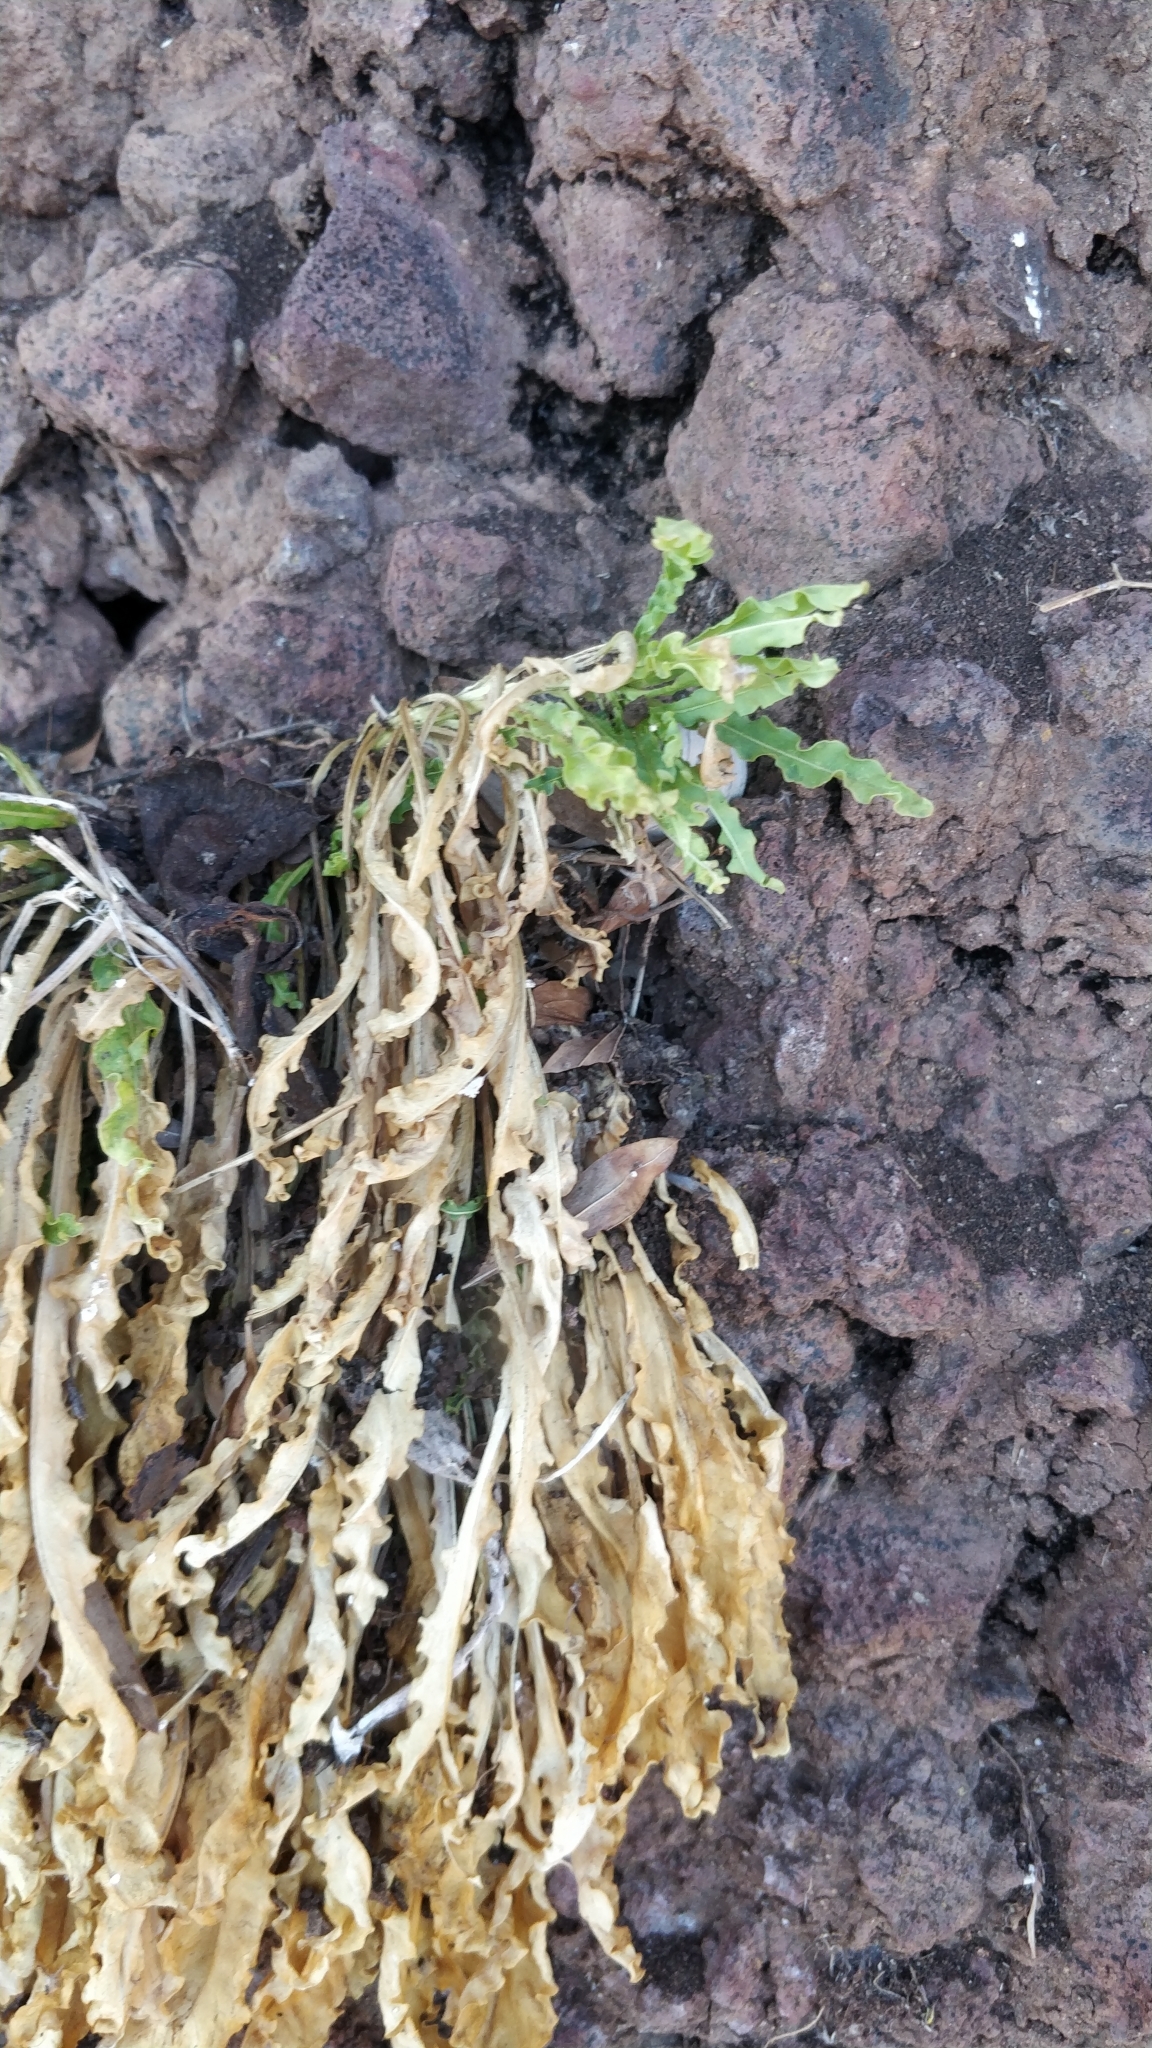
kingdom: Plantae
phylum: Tracheophyta
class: Magnoliopsida
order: Brassicales
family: Resedaceae
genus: Reseda
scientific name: Reseda luteola
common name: Weld
